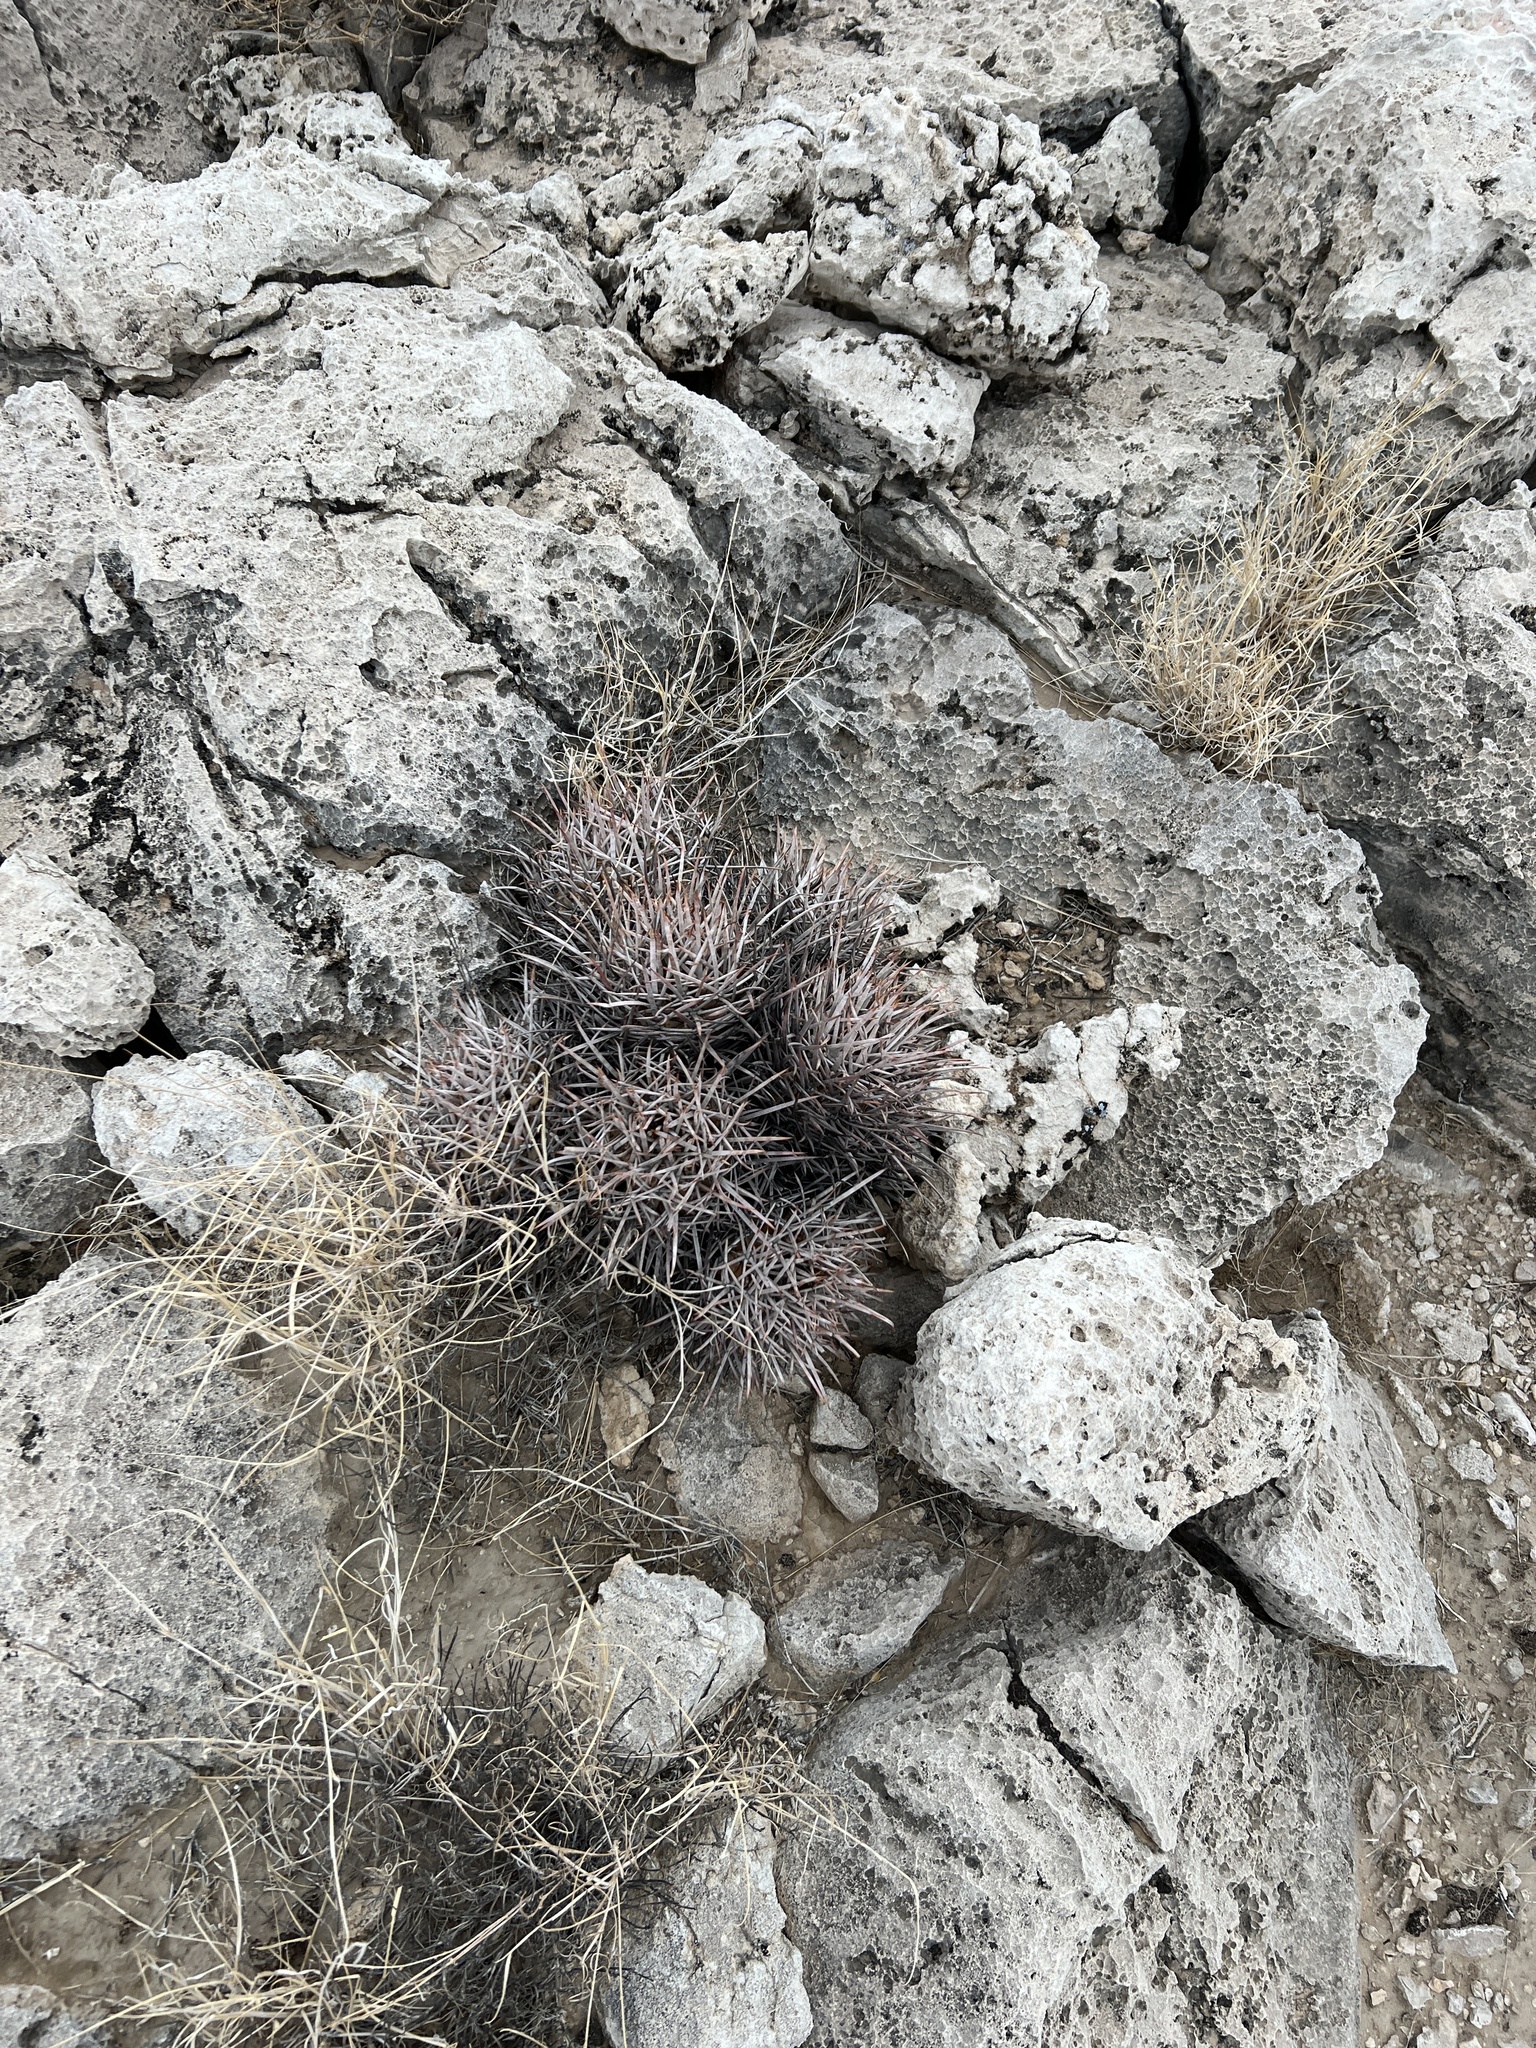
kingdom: Plantae
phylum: Tracheophyta
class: Magnoliopsida
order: Caryophyllales
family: Cactaceae
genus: Echinocactus
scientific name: Echinocactus polycephalus
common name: Cottontop cactus
